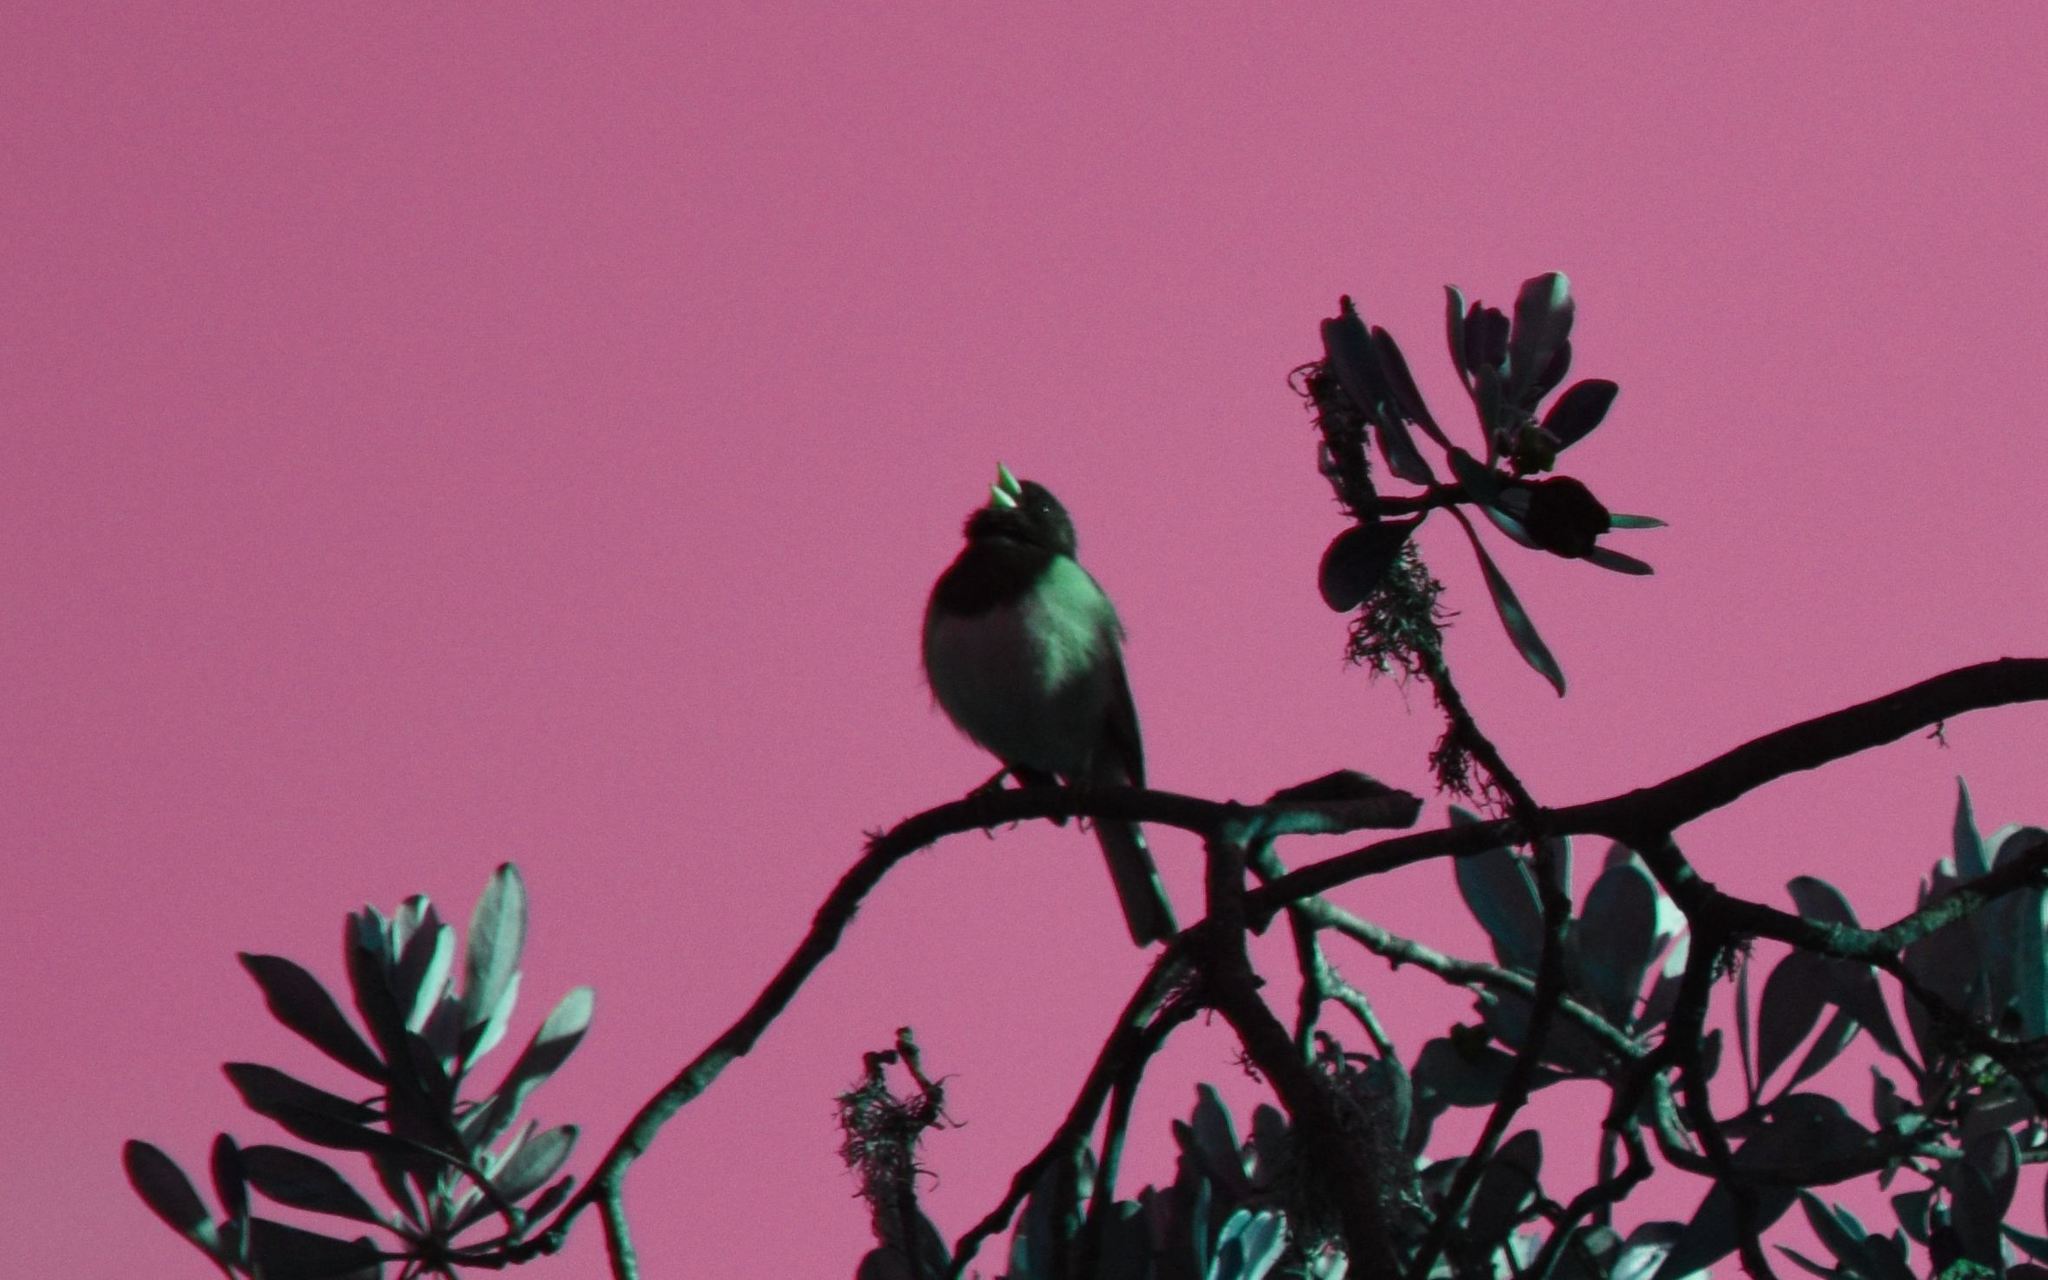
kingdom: Animalia
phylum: Chordata
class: Aves
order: Passeriformes
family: Passerellidae
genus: Junco
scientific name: Junco hyemalis
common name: Dark-eyed junco
